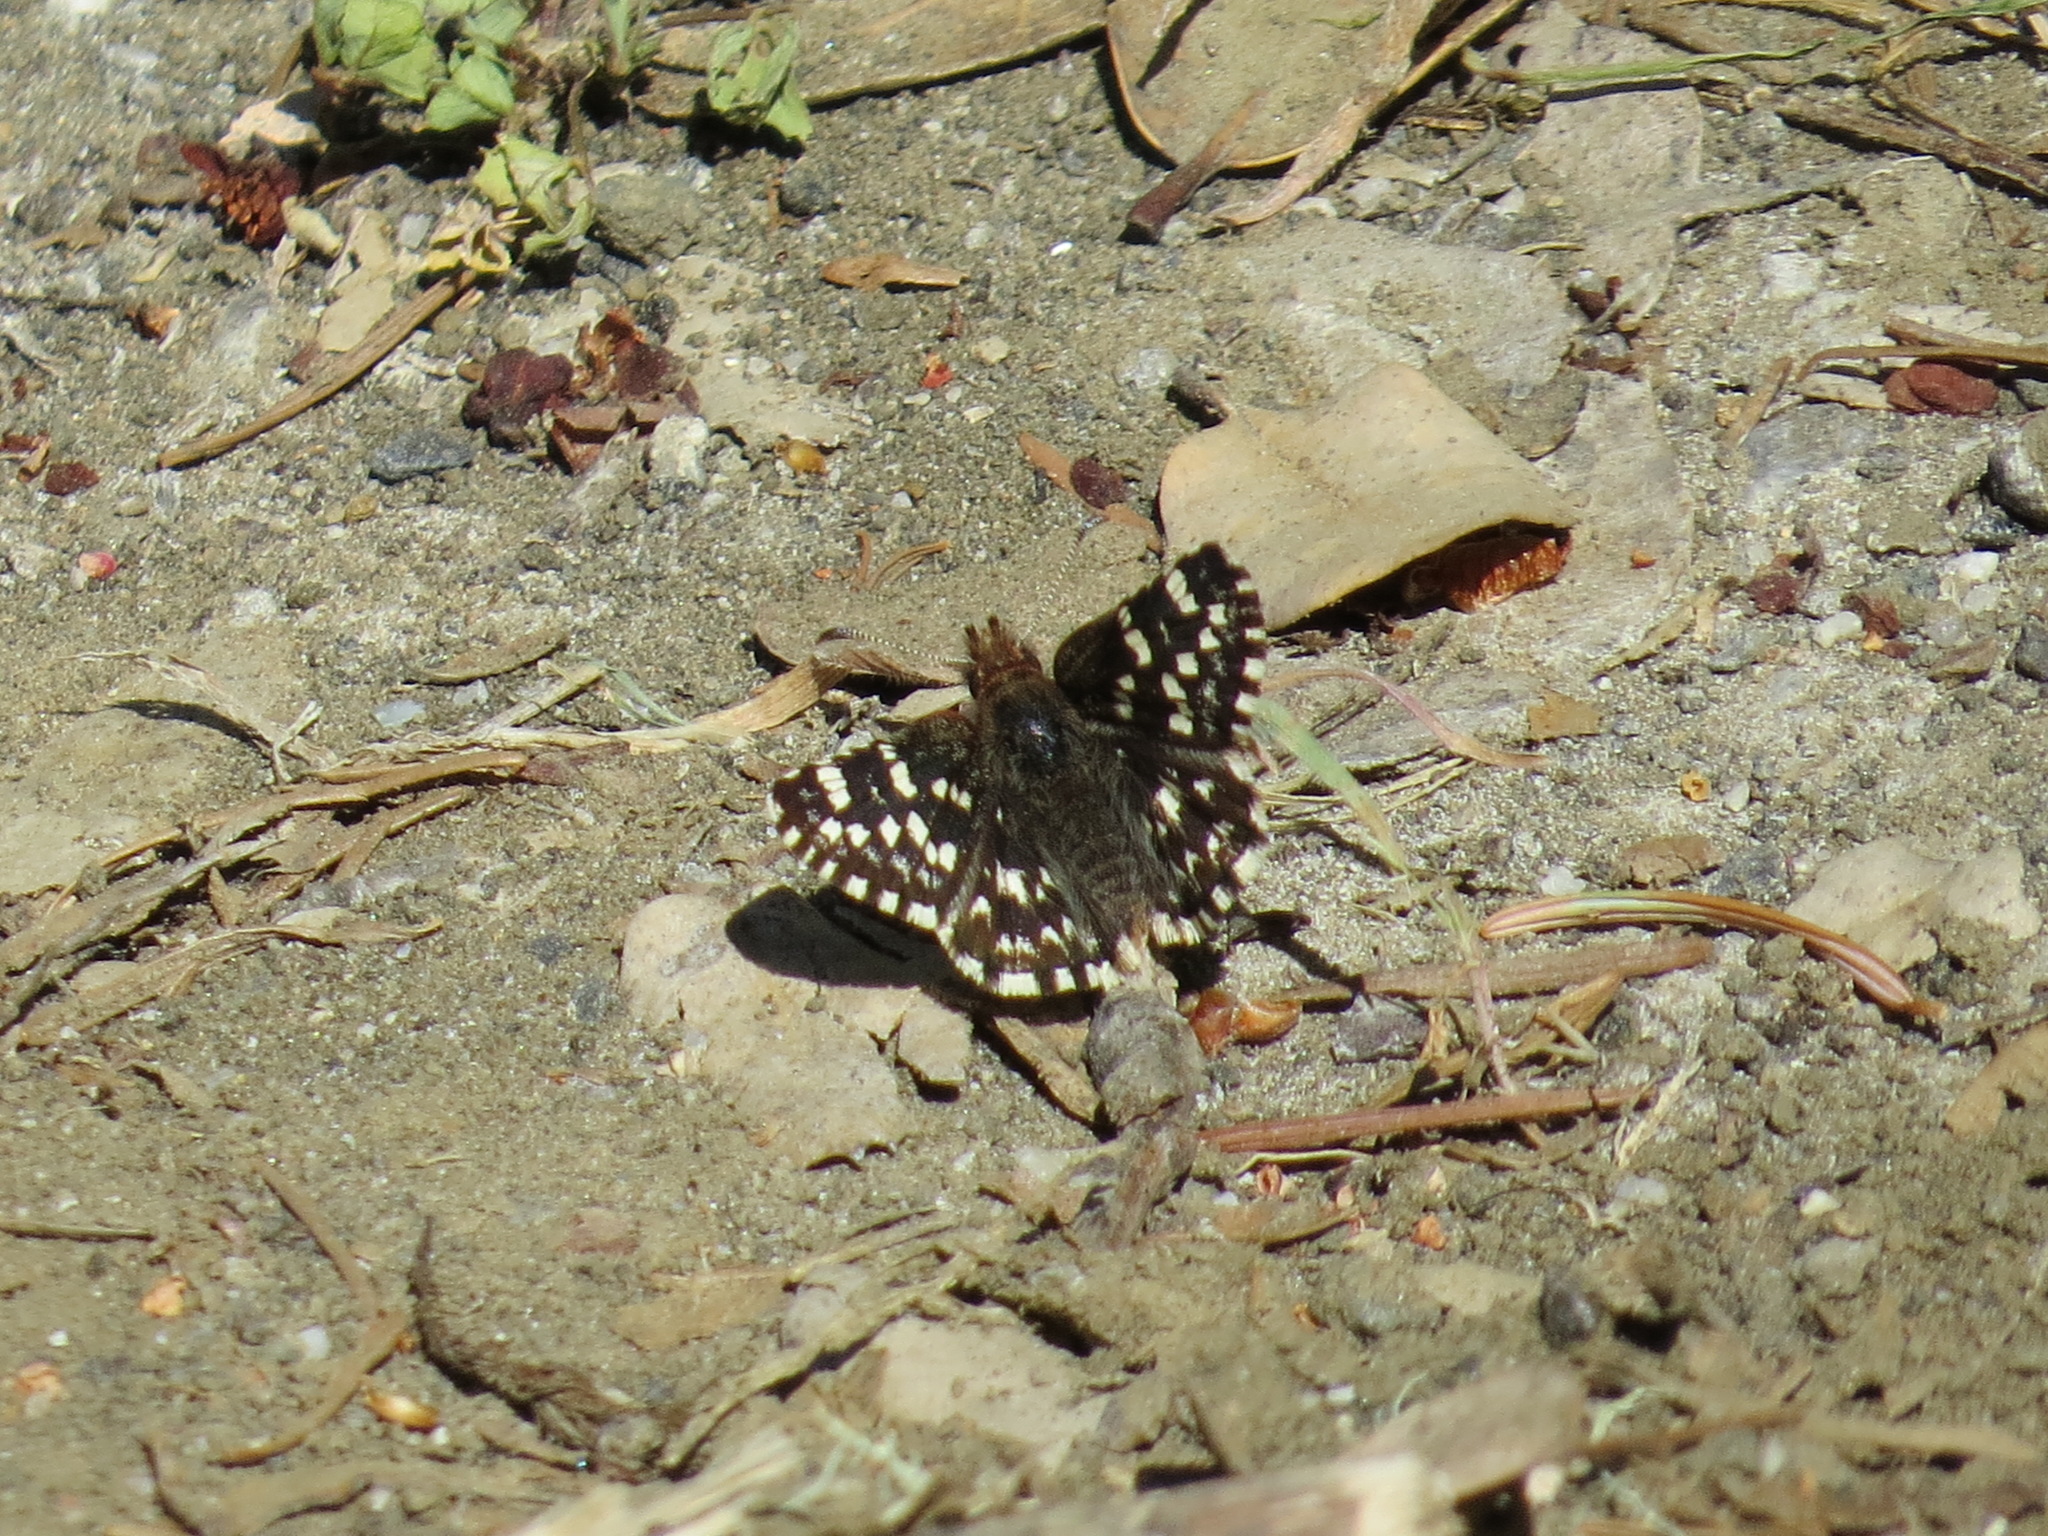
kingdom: Animalia
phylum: Arthropoda
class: Insecta
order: Lepidoptera
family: Hesperiidae
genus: Pyrgus
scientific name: Pyrgus ruralis
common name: Two-banded checkered-skipper
